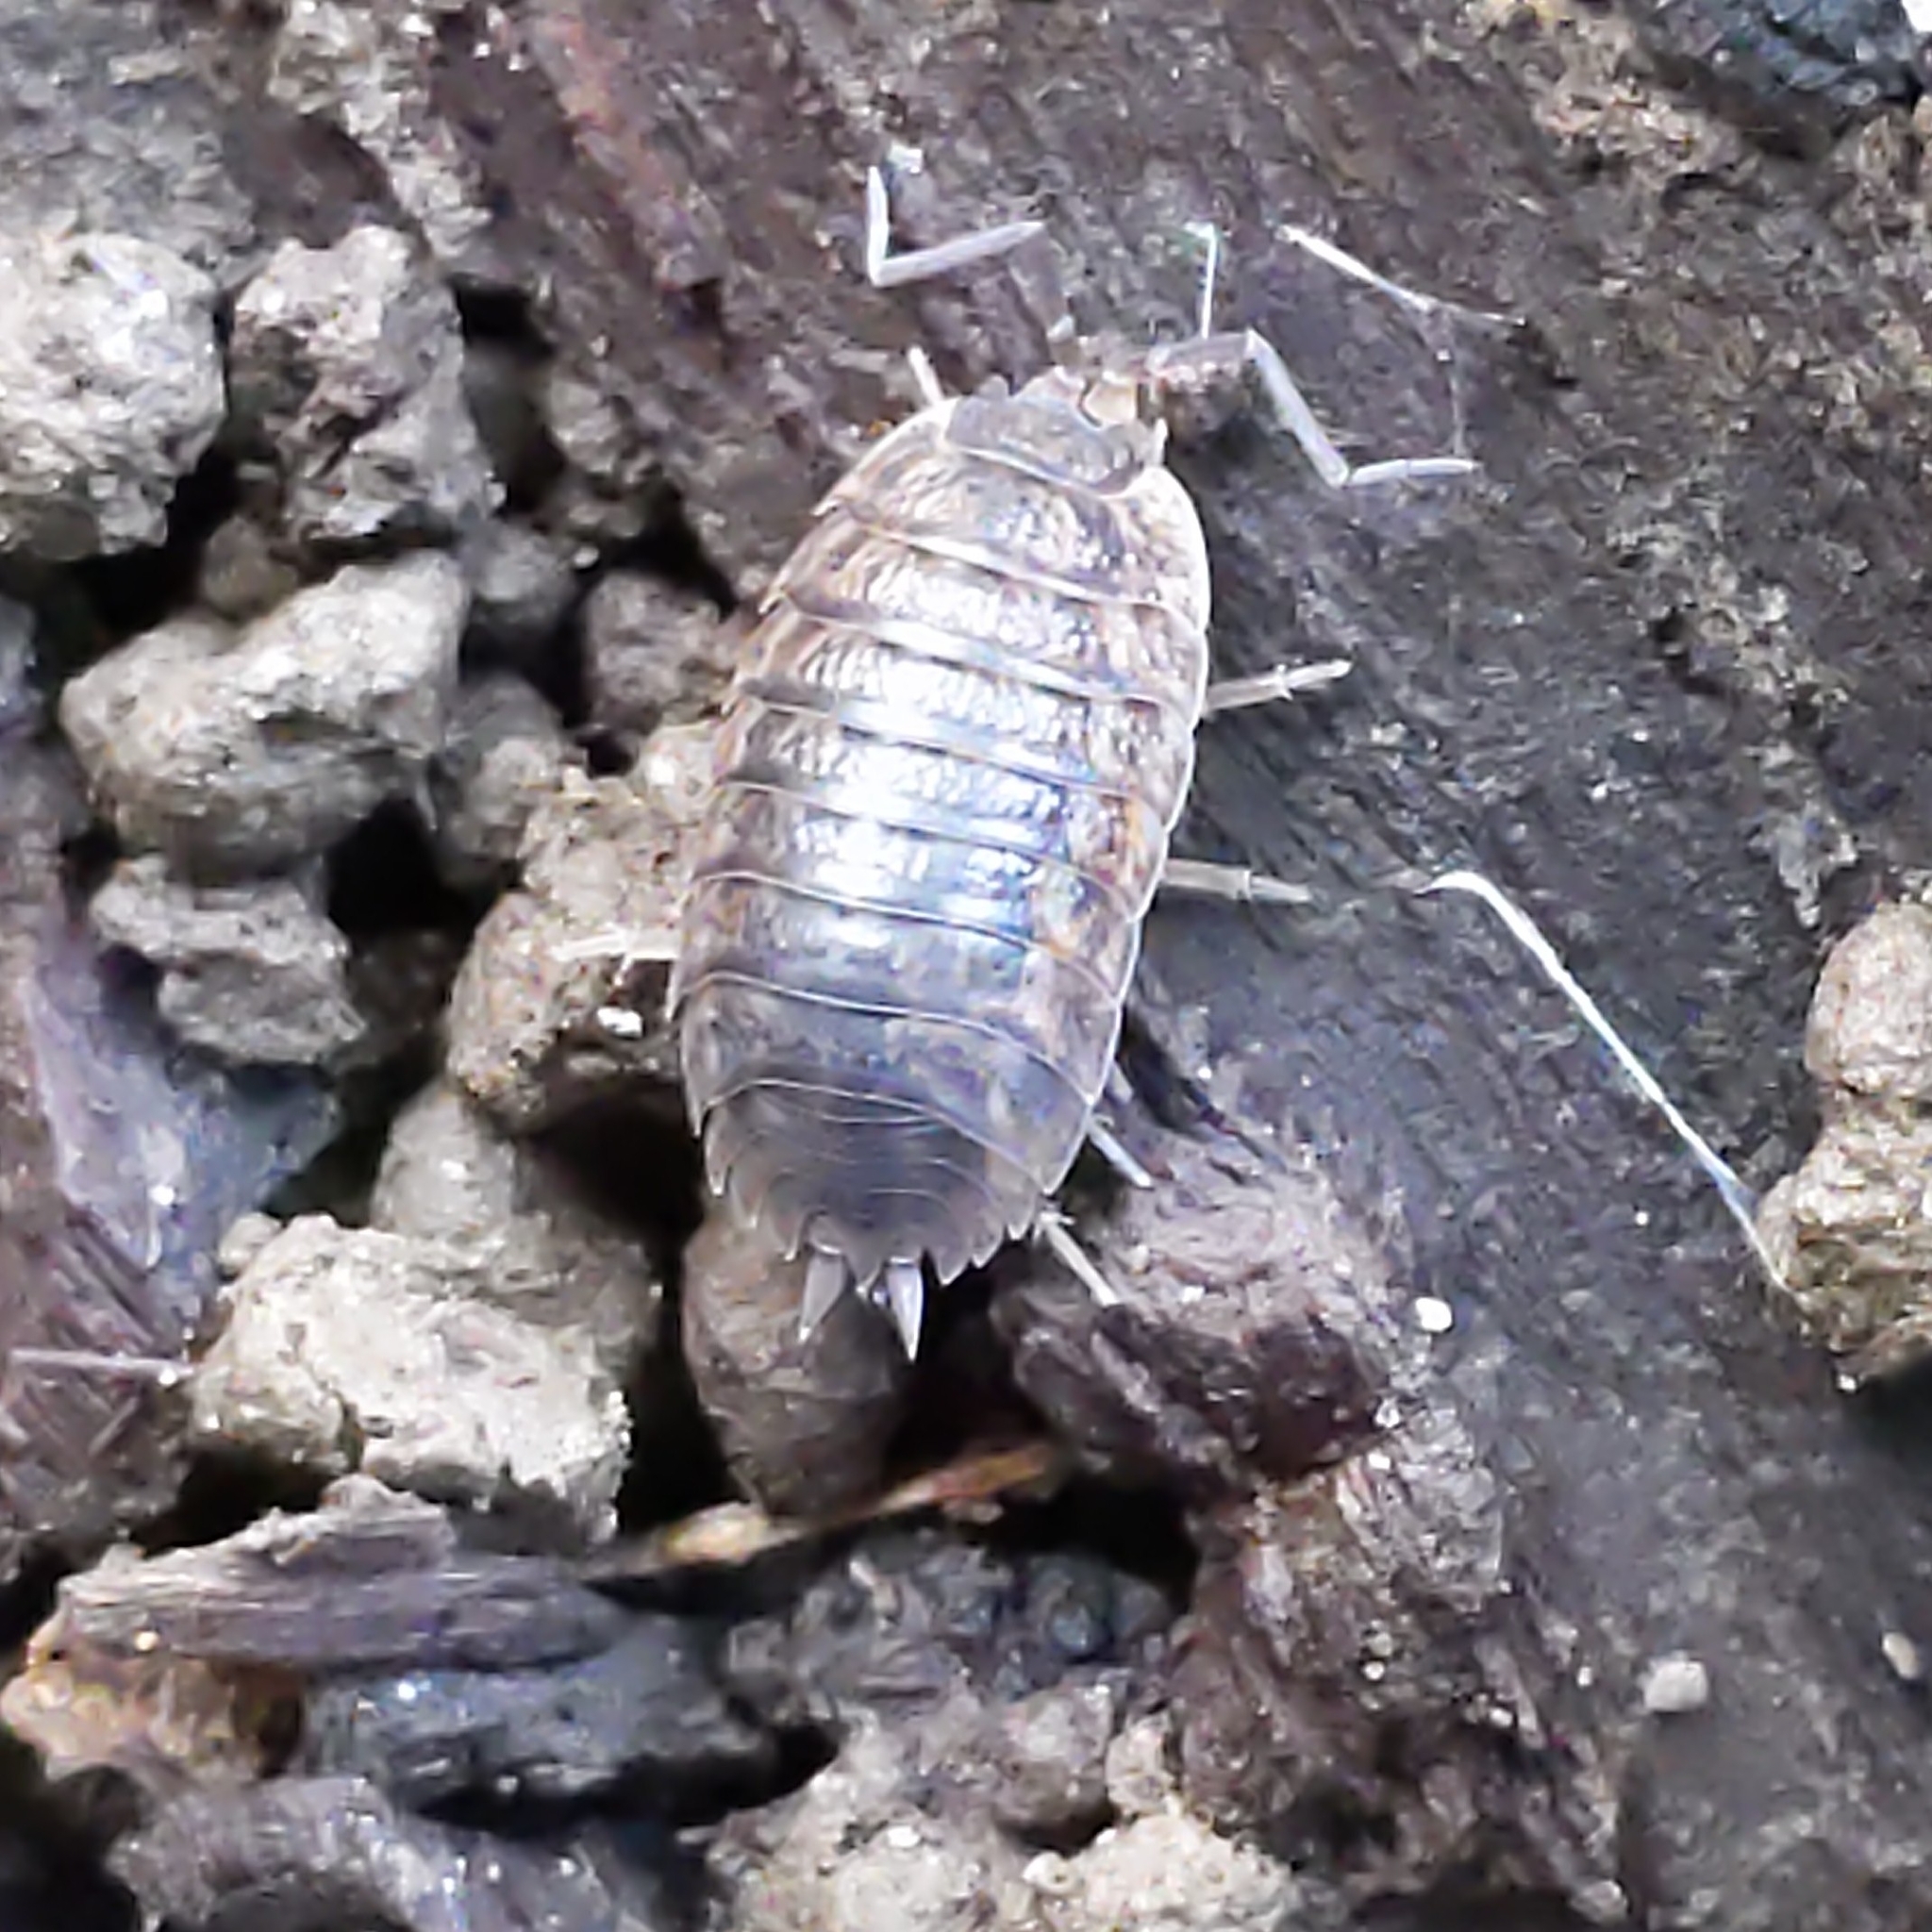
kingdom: Animalia
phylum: Arthropoda
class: Malacostraca
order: Isopoda
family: Trachelipodidae
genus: Trachelipus
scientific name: Trachelipus rathkii
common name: Isopod
